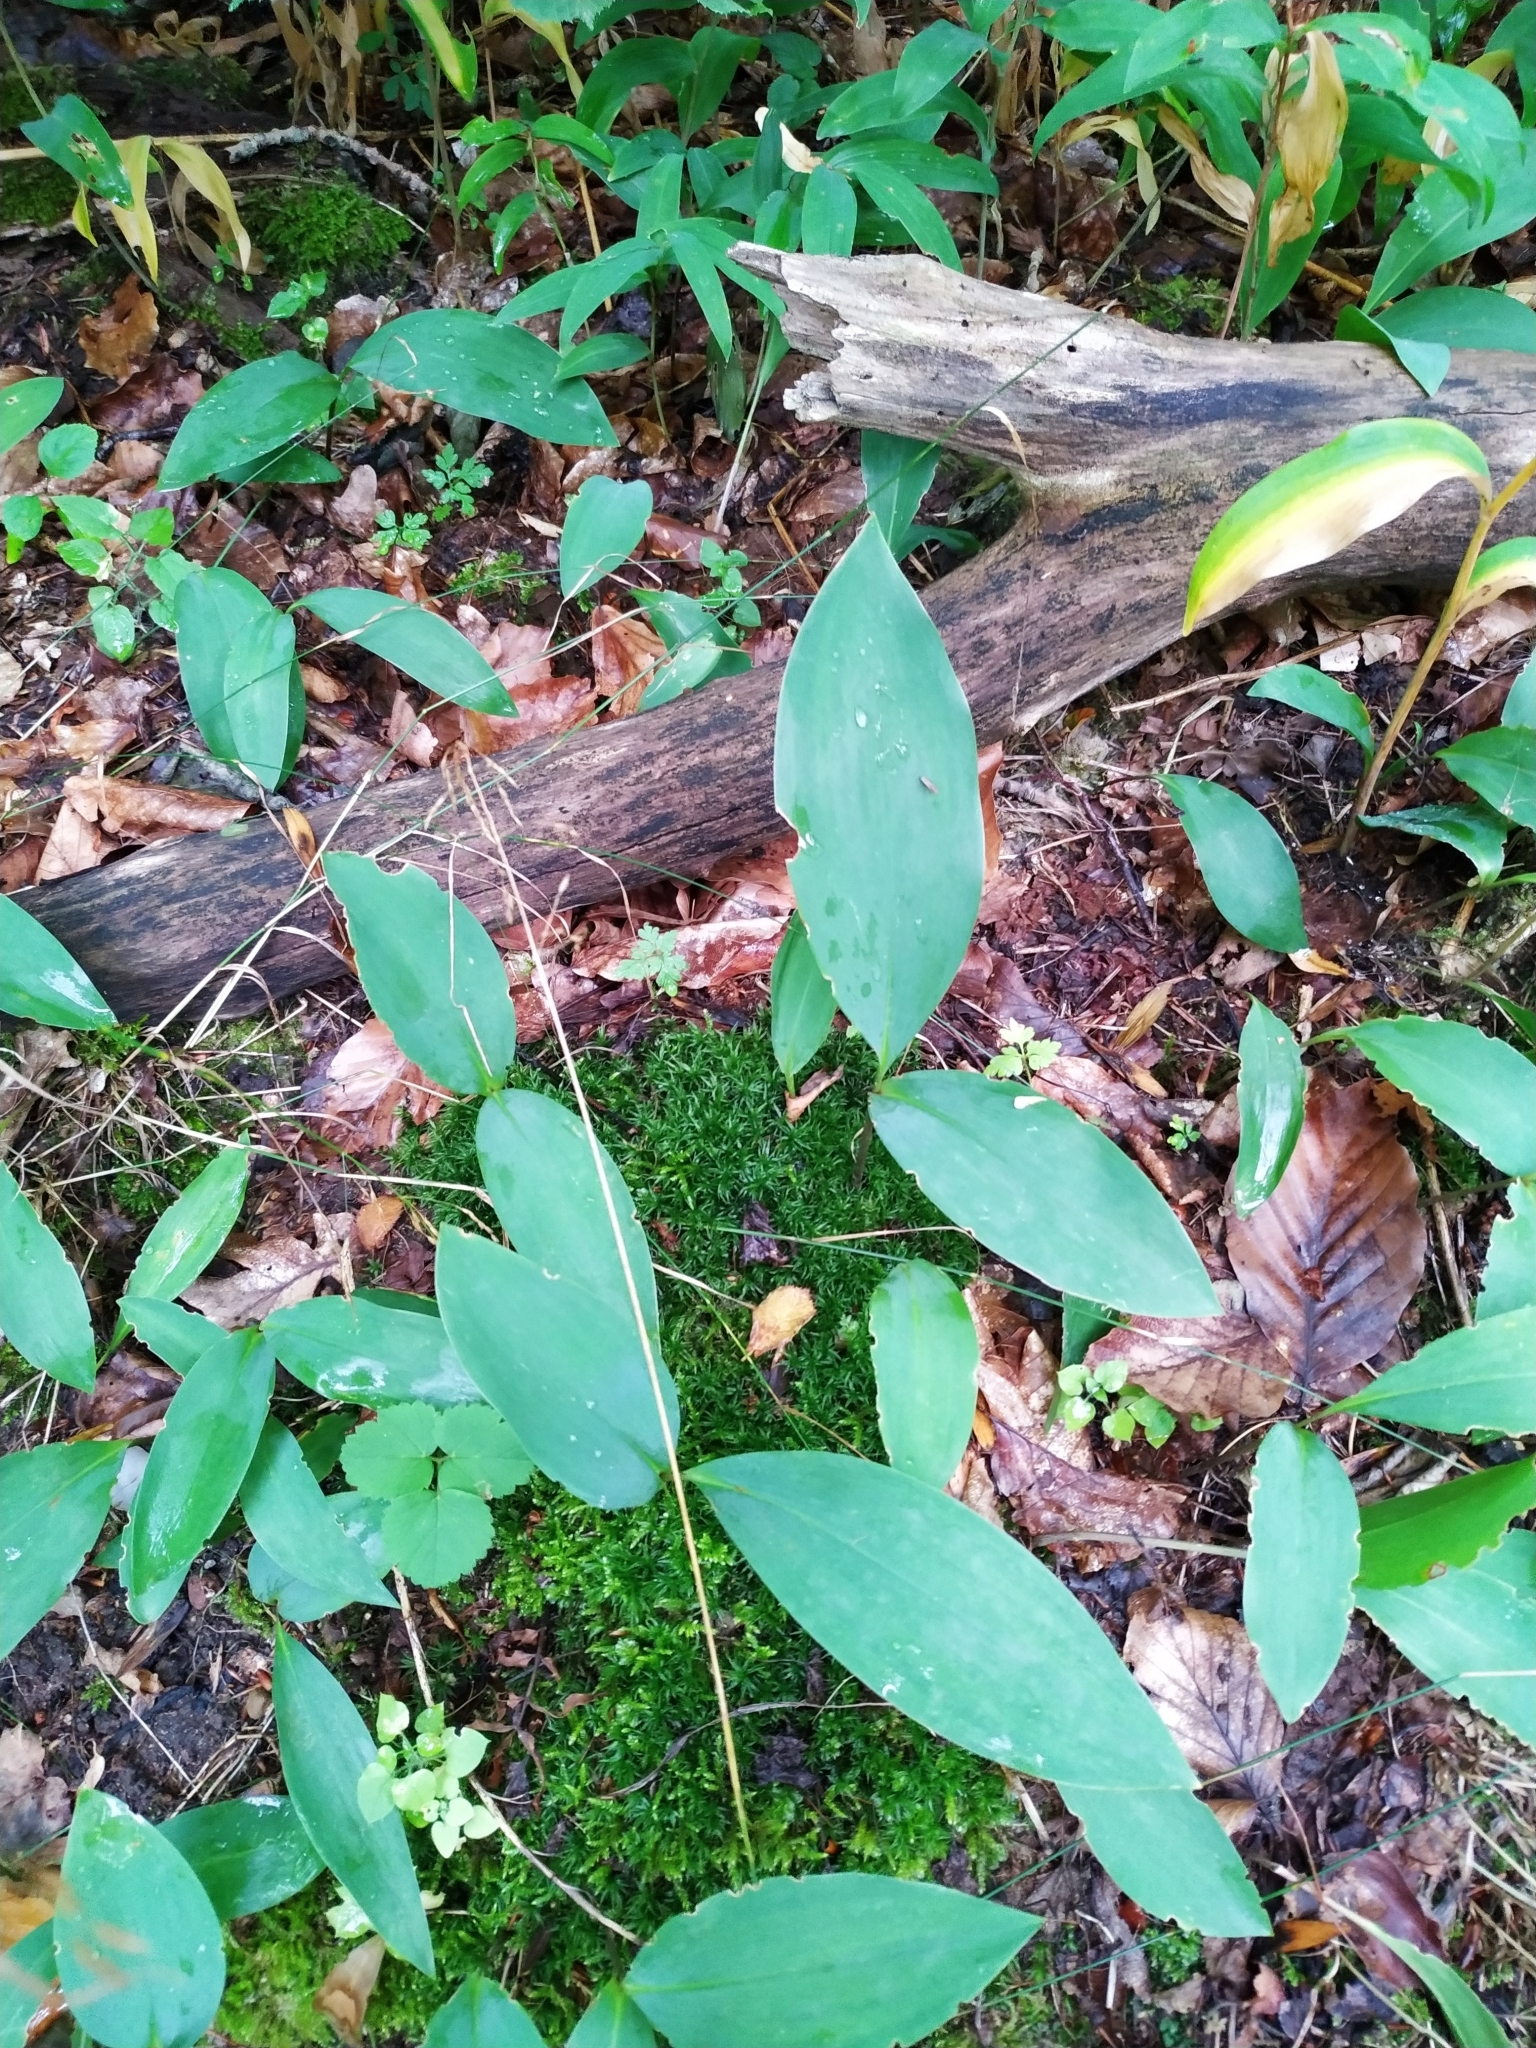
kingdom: Plantae
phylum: Tracheophyta
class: Liliopsida
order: Asparagales
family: Asparagaceae
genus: Convallaria
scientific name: Convallaria majalis
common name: Lily-of-the-valley
